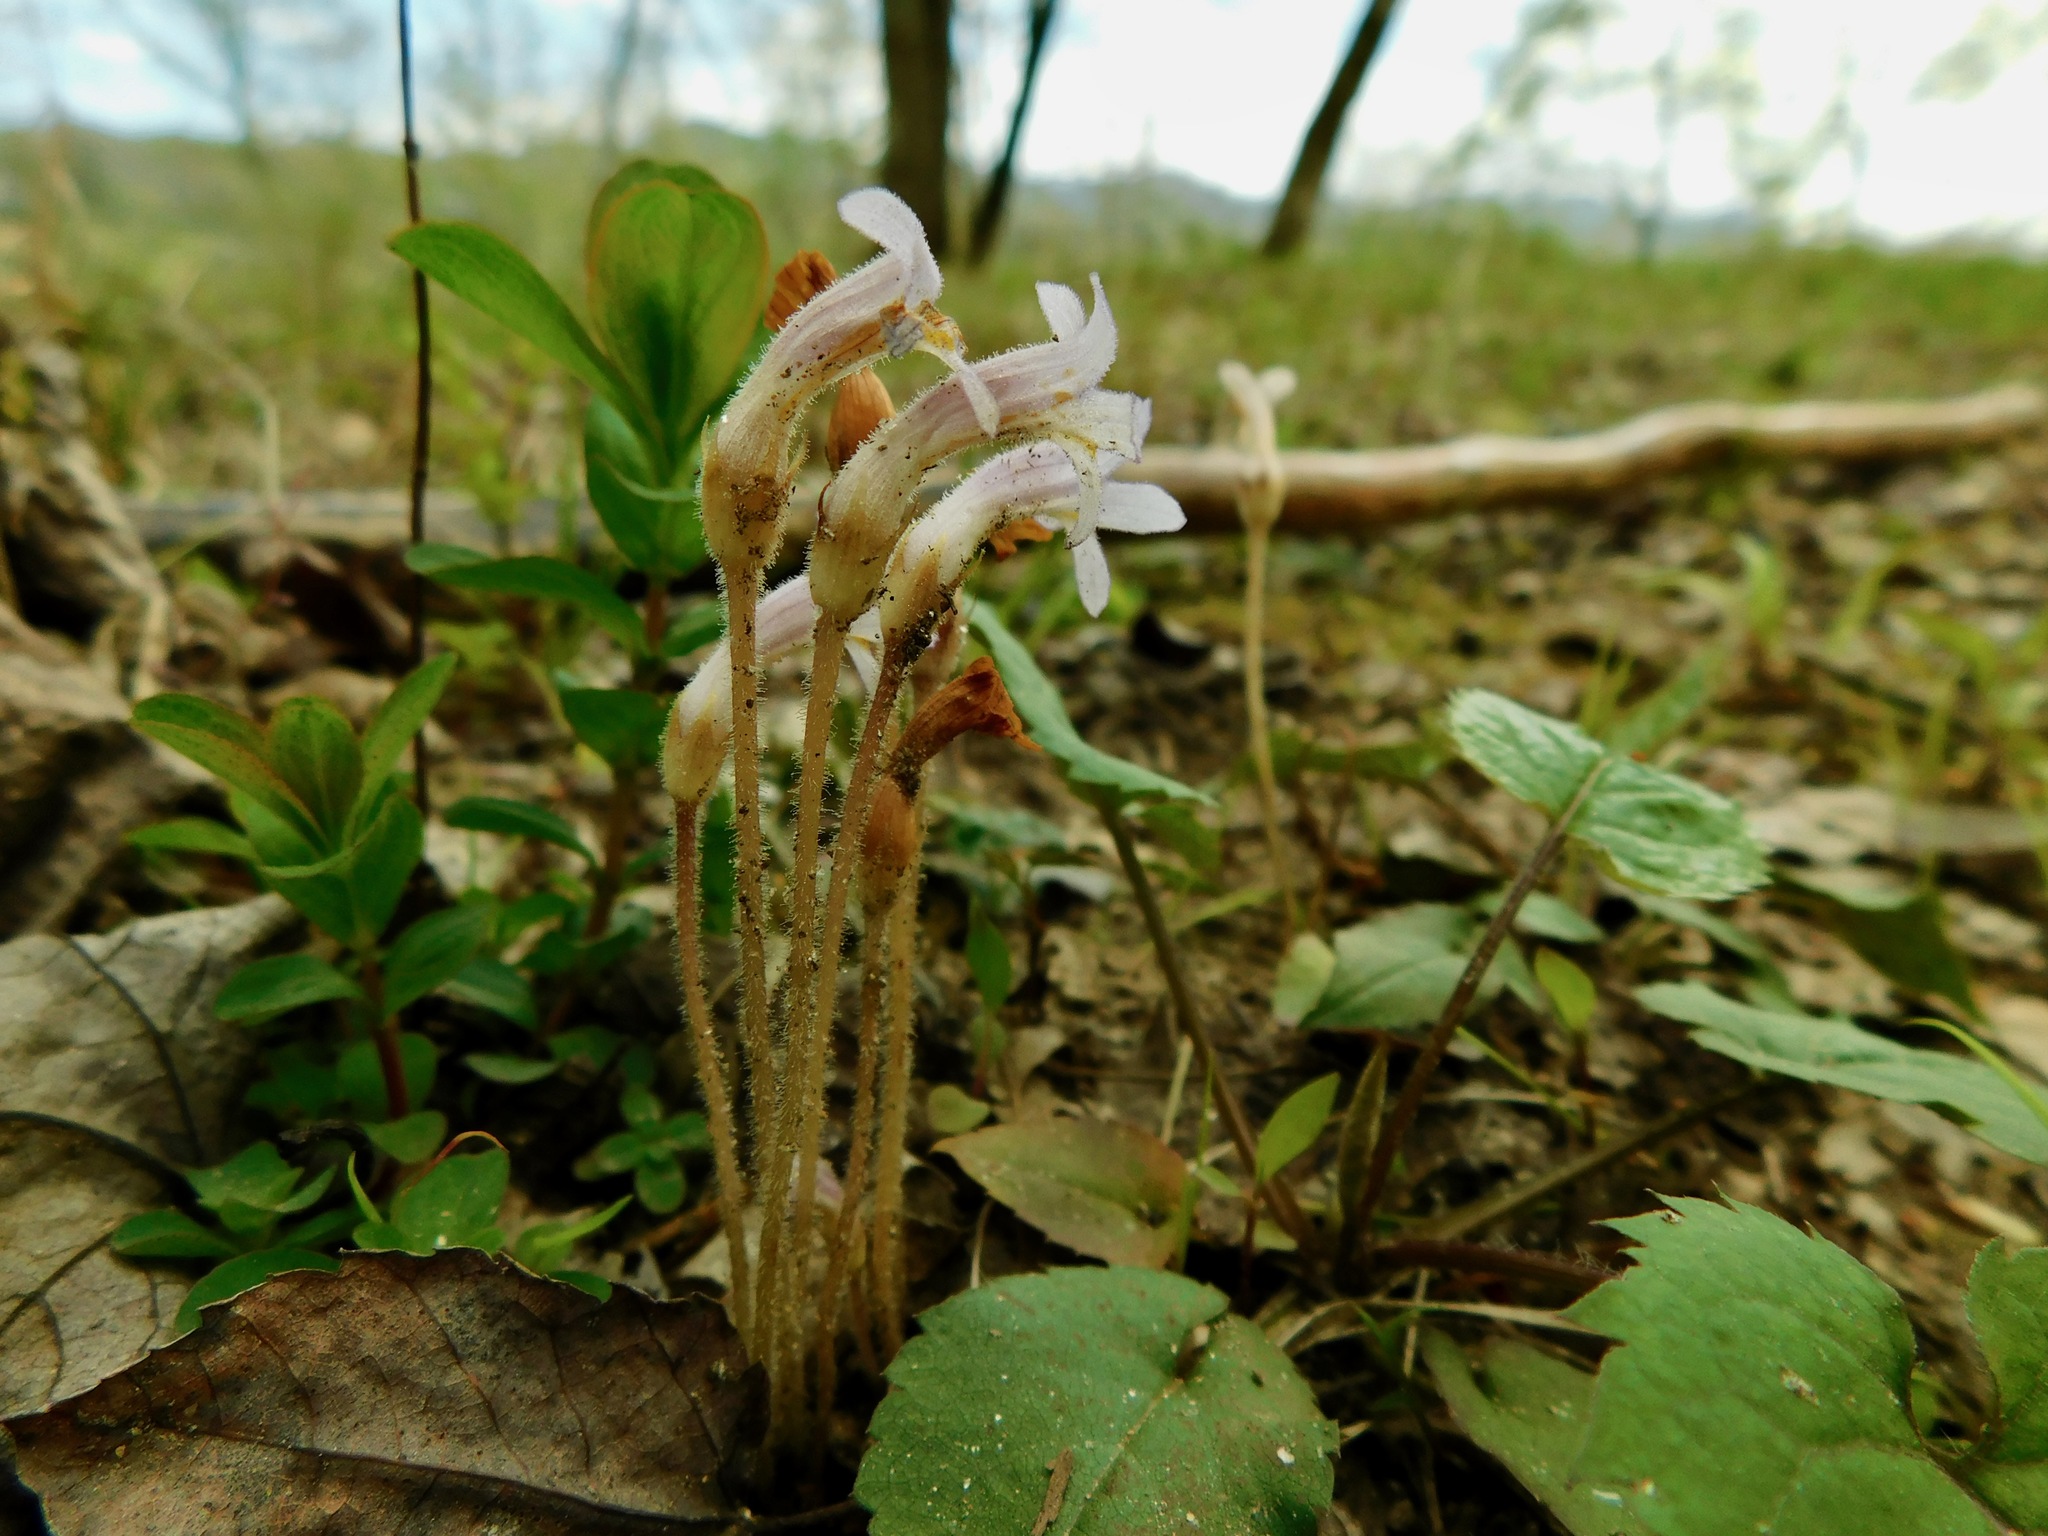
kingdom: Plantae
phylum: Tracheophyta
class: Magnoliopsida
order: Lamiales
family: Orobanchaceae
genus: Aphyllon
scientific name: Aphyllon uniflorum
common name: One-flowered broomrape
